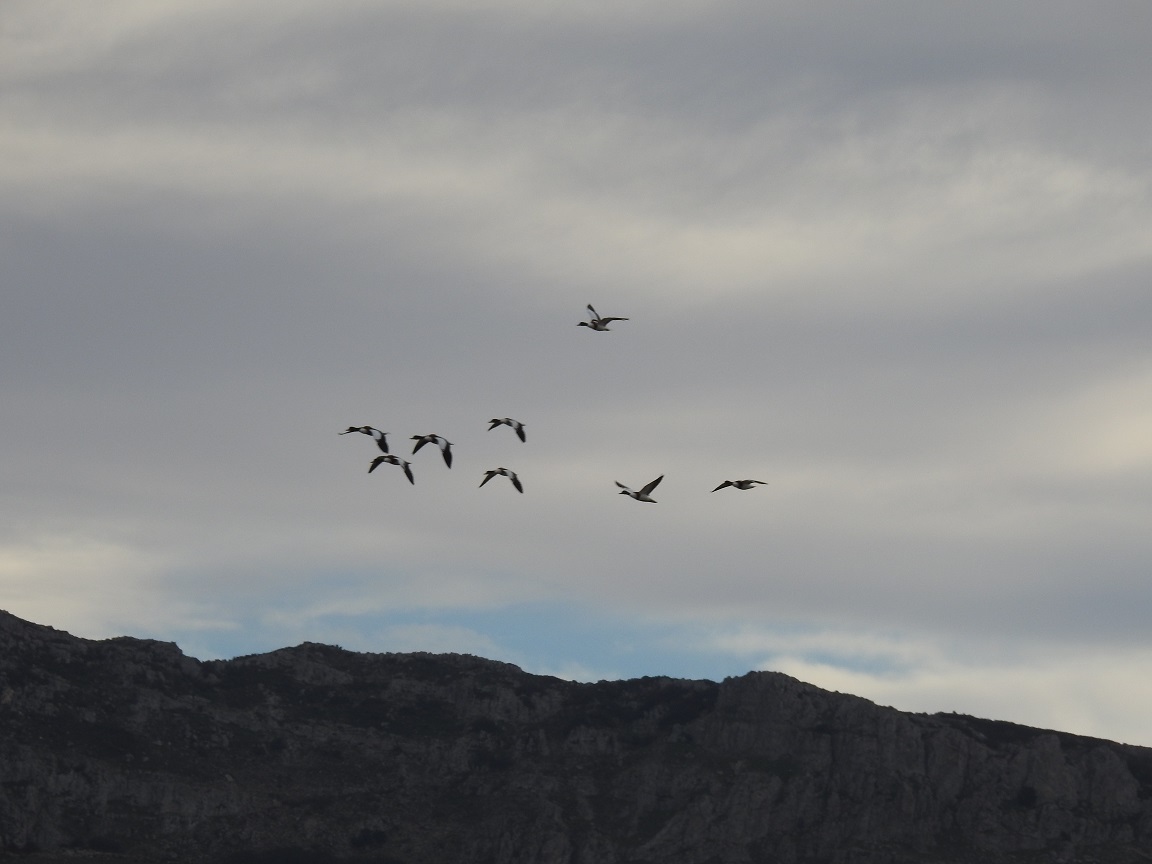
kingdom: Animalia
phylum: Chordata
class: Aves
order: Anseriformes
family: Anatidae
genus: Tadorna
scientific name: Tadorna tadorna
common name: Common shelduck
